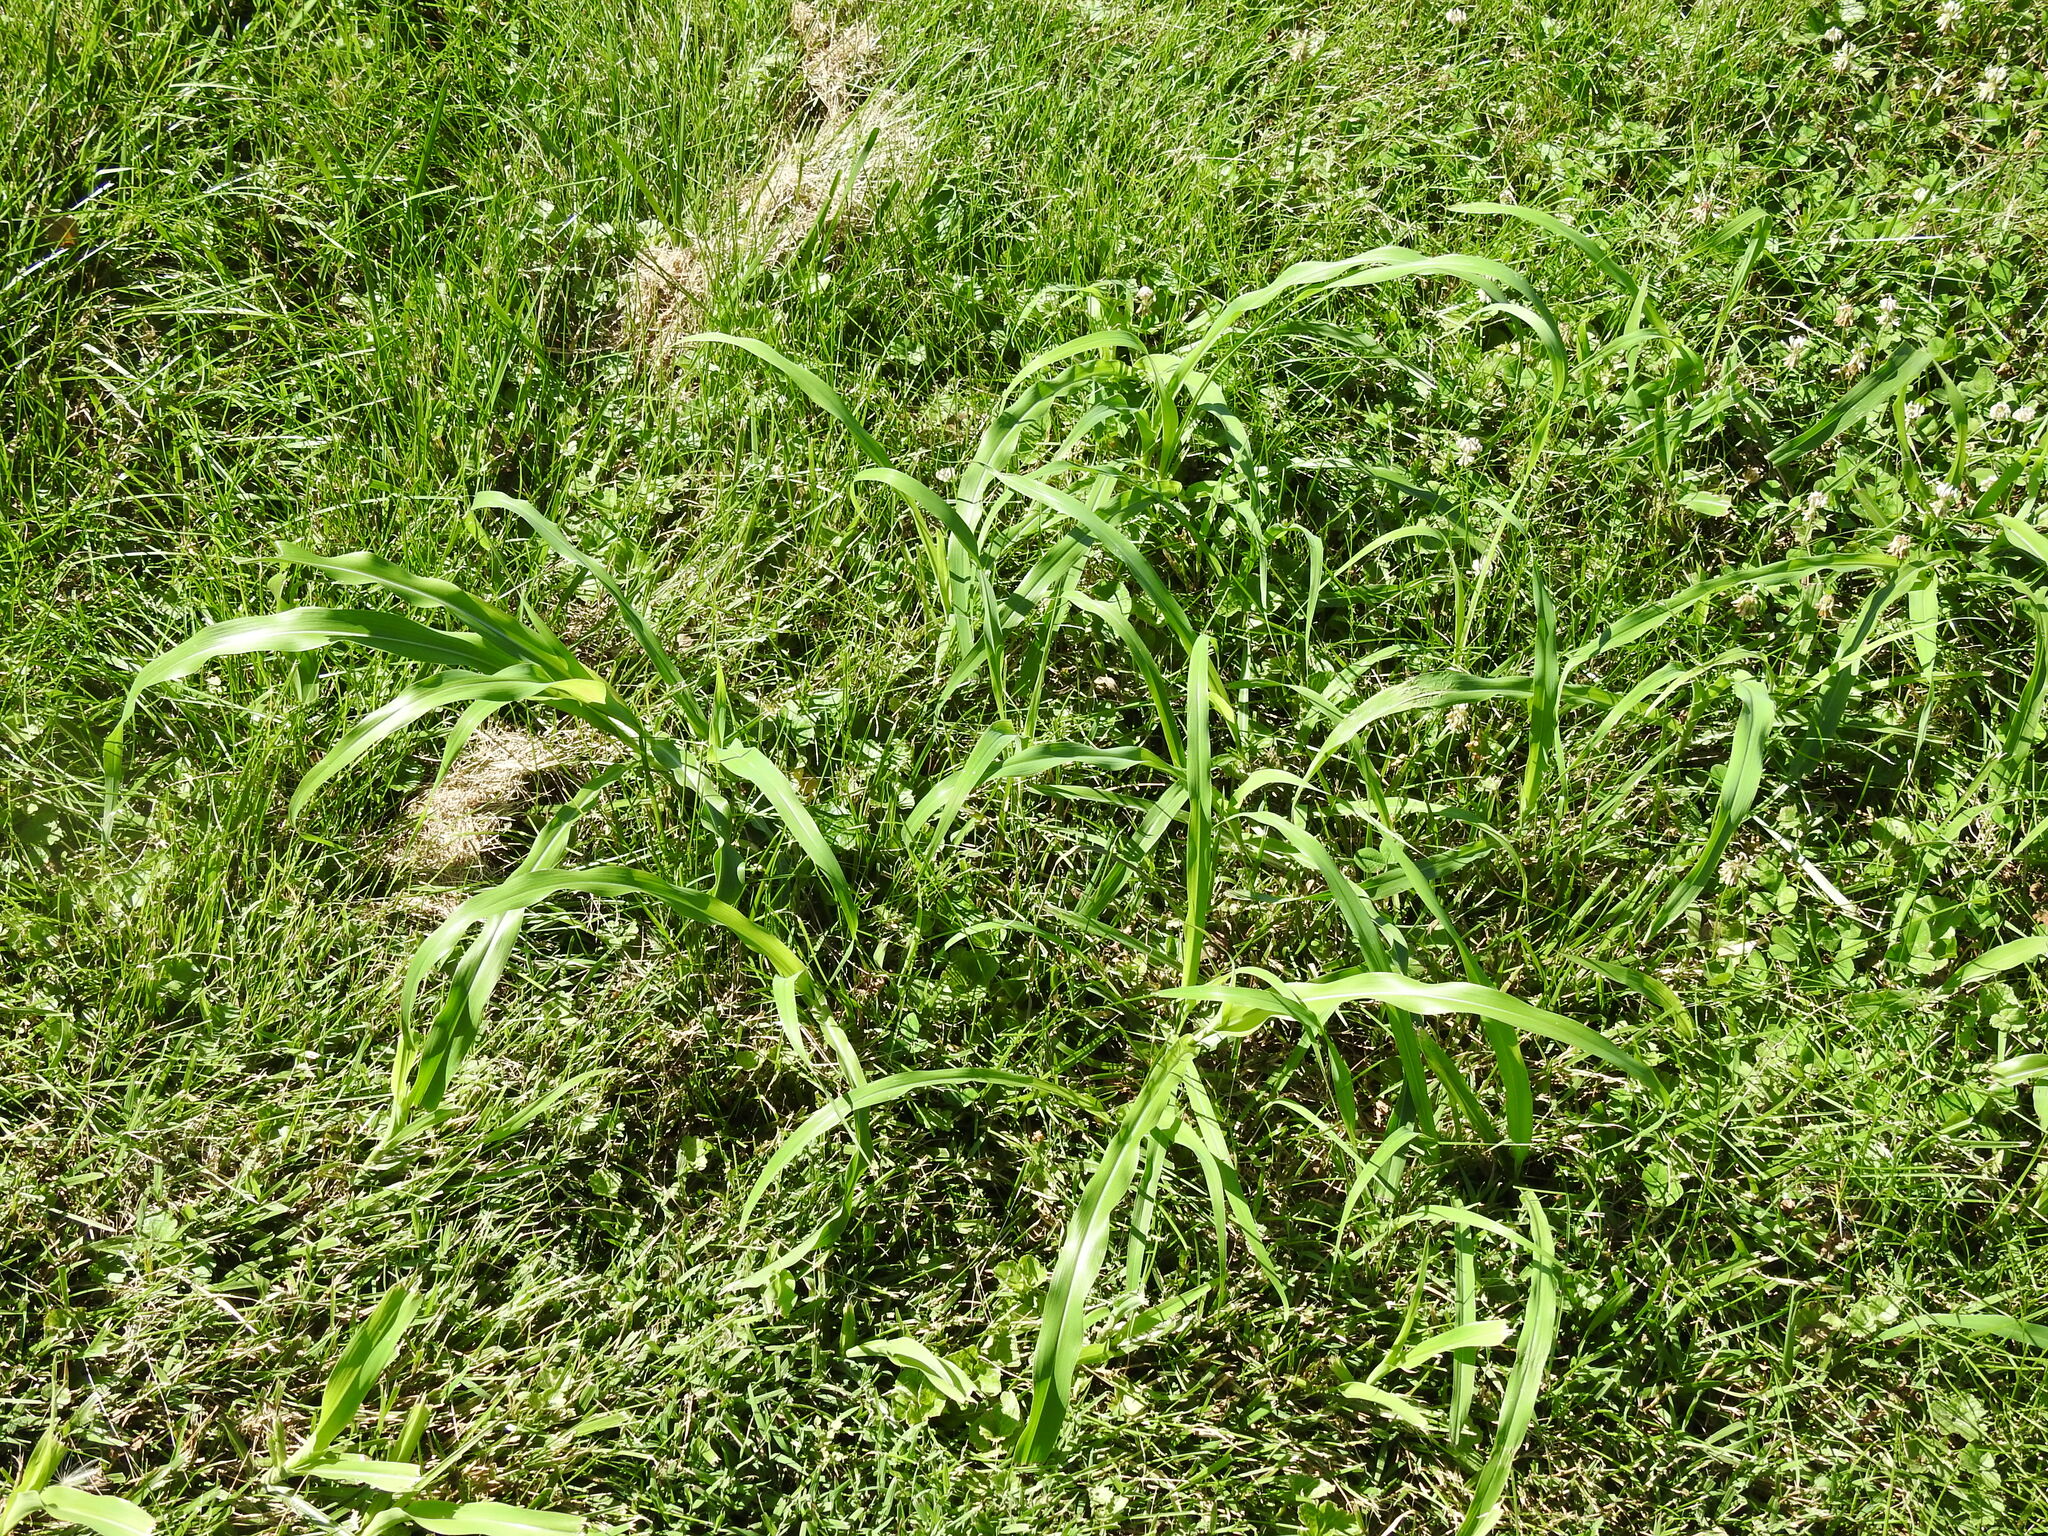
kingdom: Plantae
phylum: Tracheophyta
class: Liliopsida
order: Poales
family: Poaceae
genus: Sorghum
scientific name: Sorghum halepense
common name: Johnson-grass
